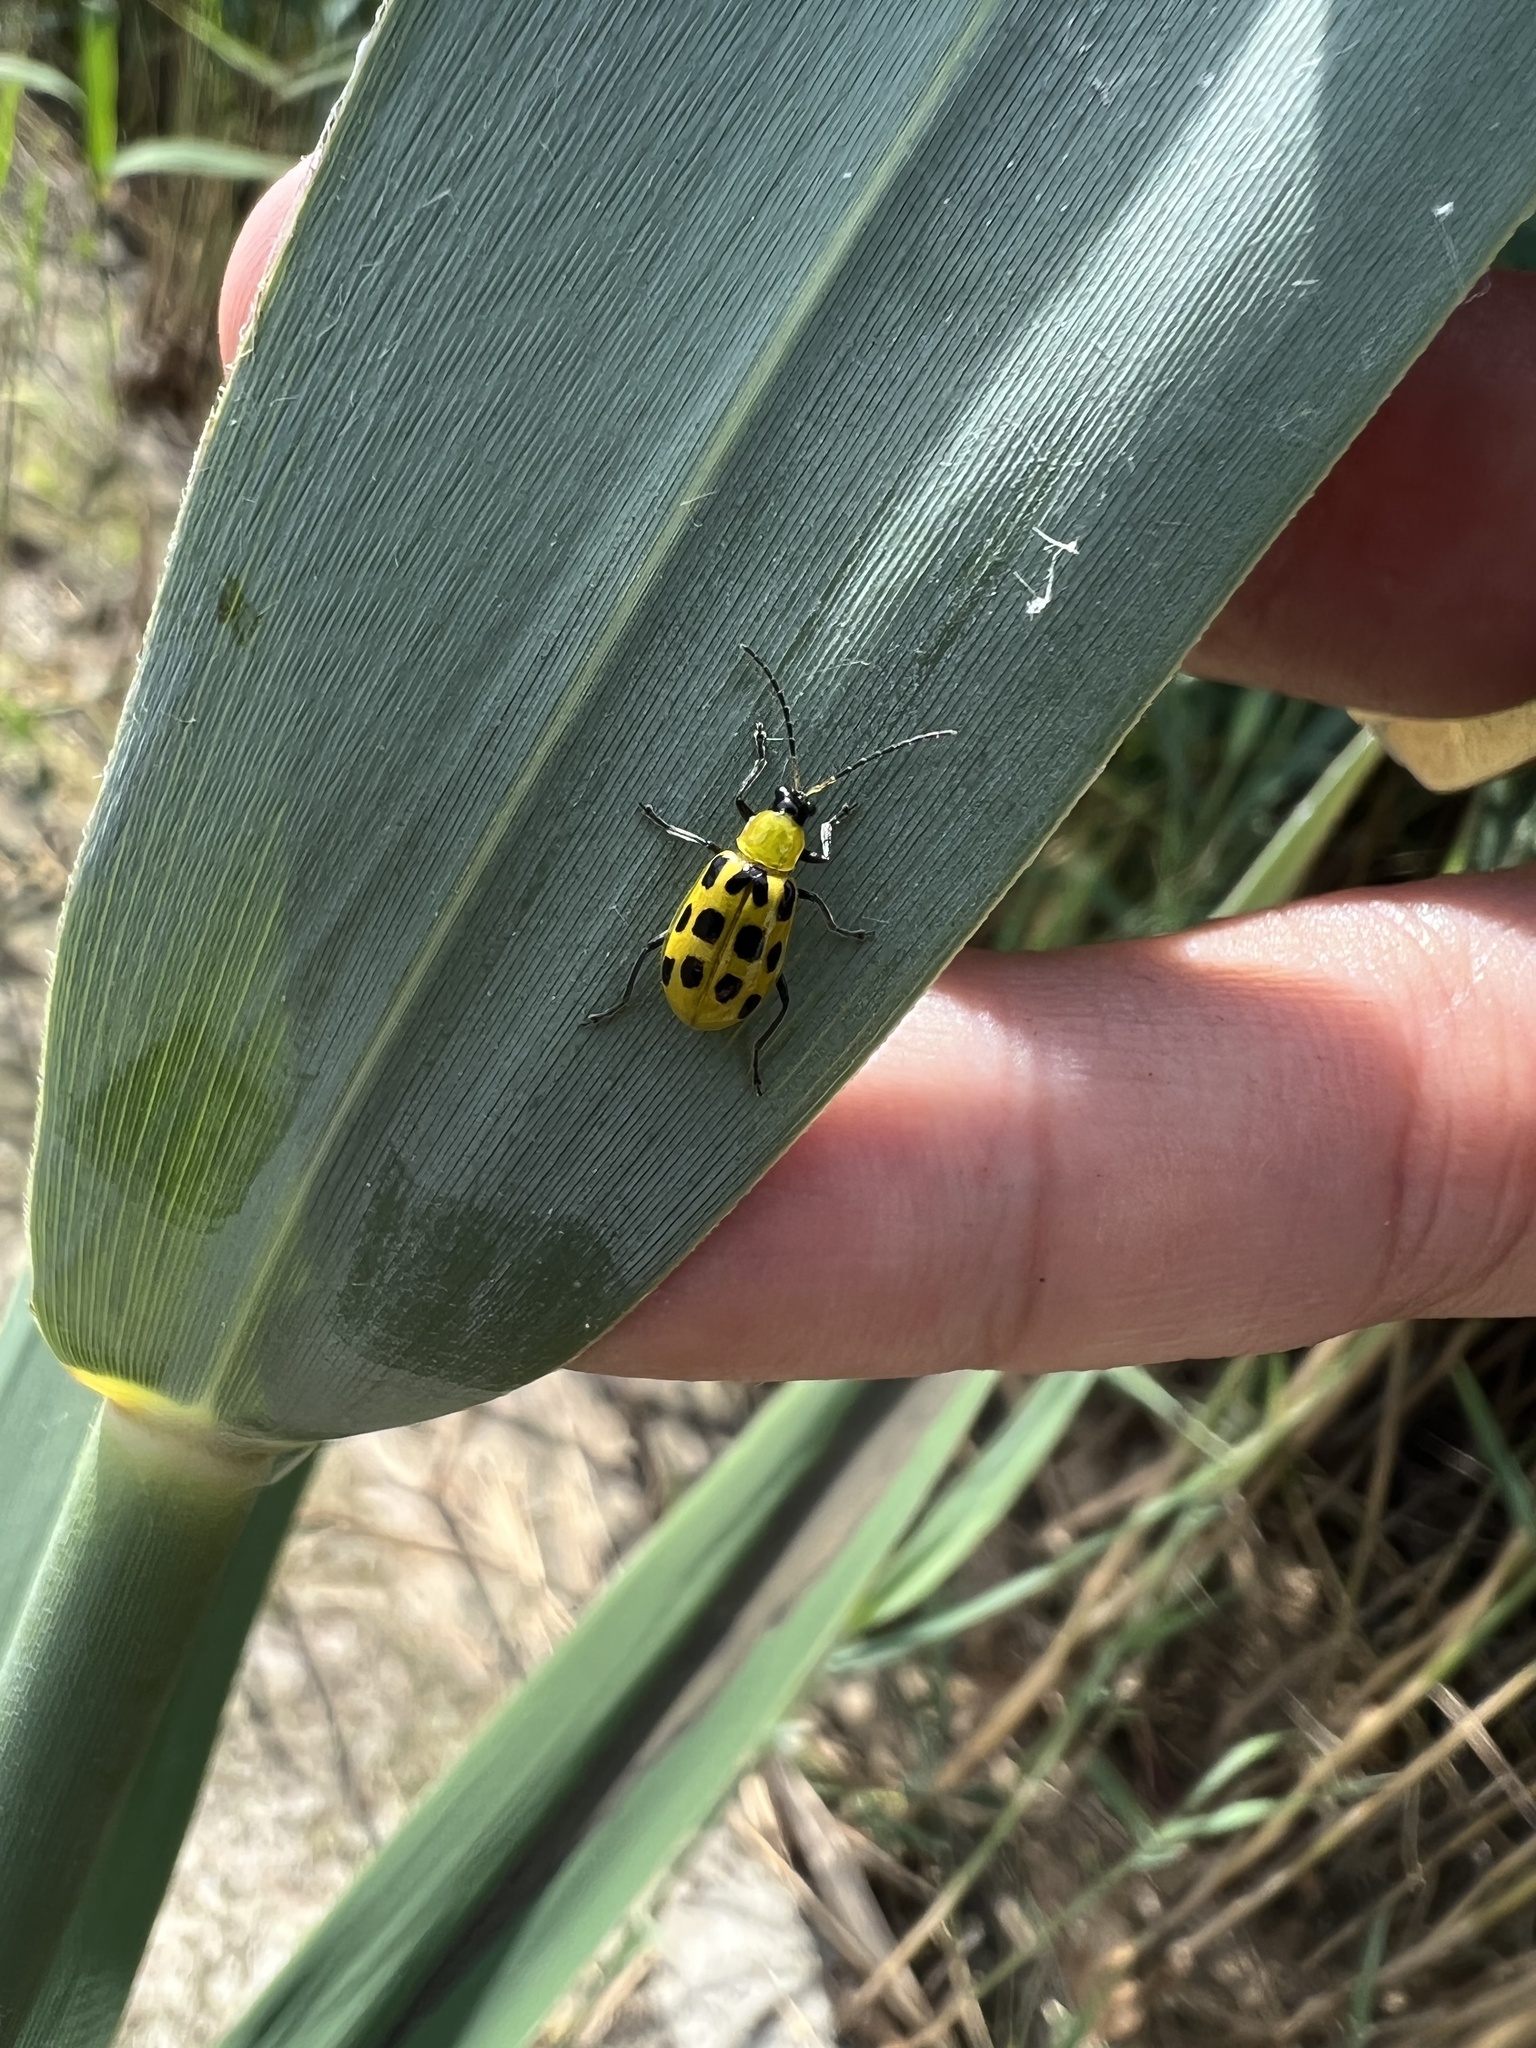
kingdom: Animalia
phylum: Arthropoda
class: Insecta
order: Coleoptera
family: Chrysomelidae
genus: Diabrotica
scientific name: Diabrotica undecimpunctata
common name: Spotted cucumber beetle
